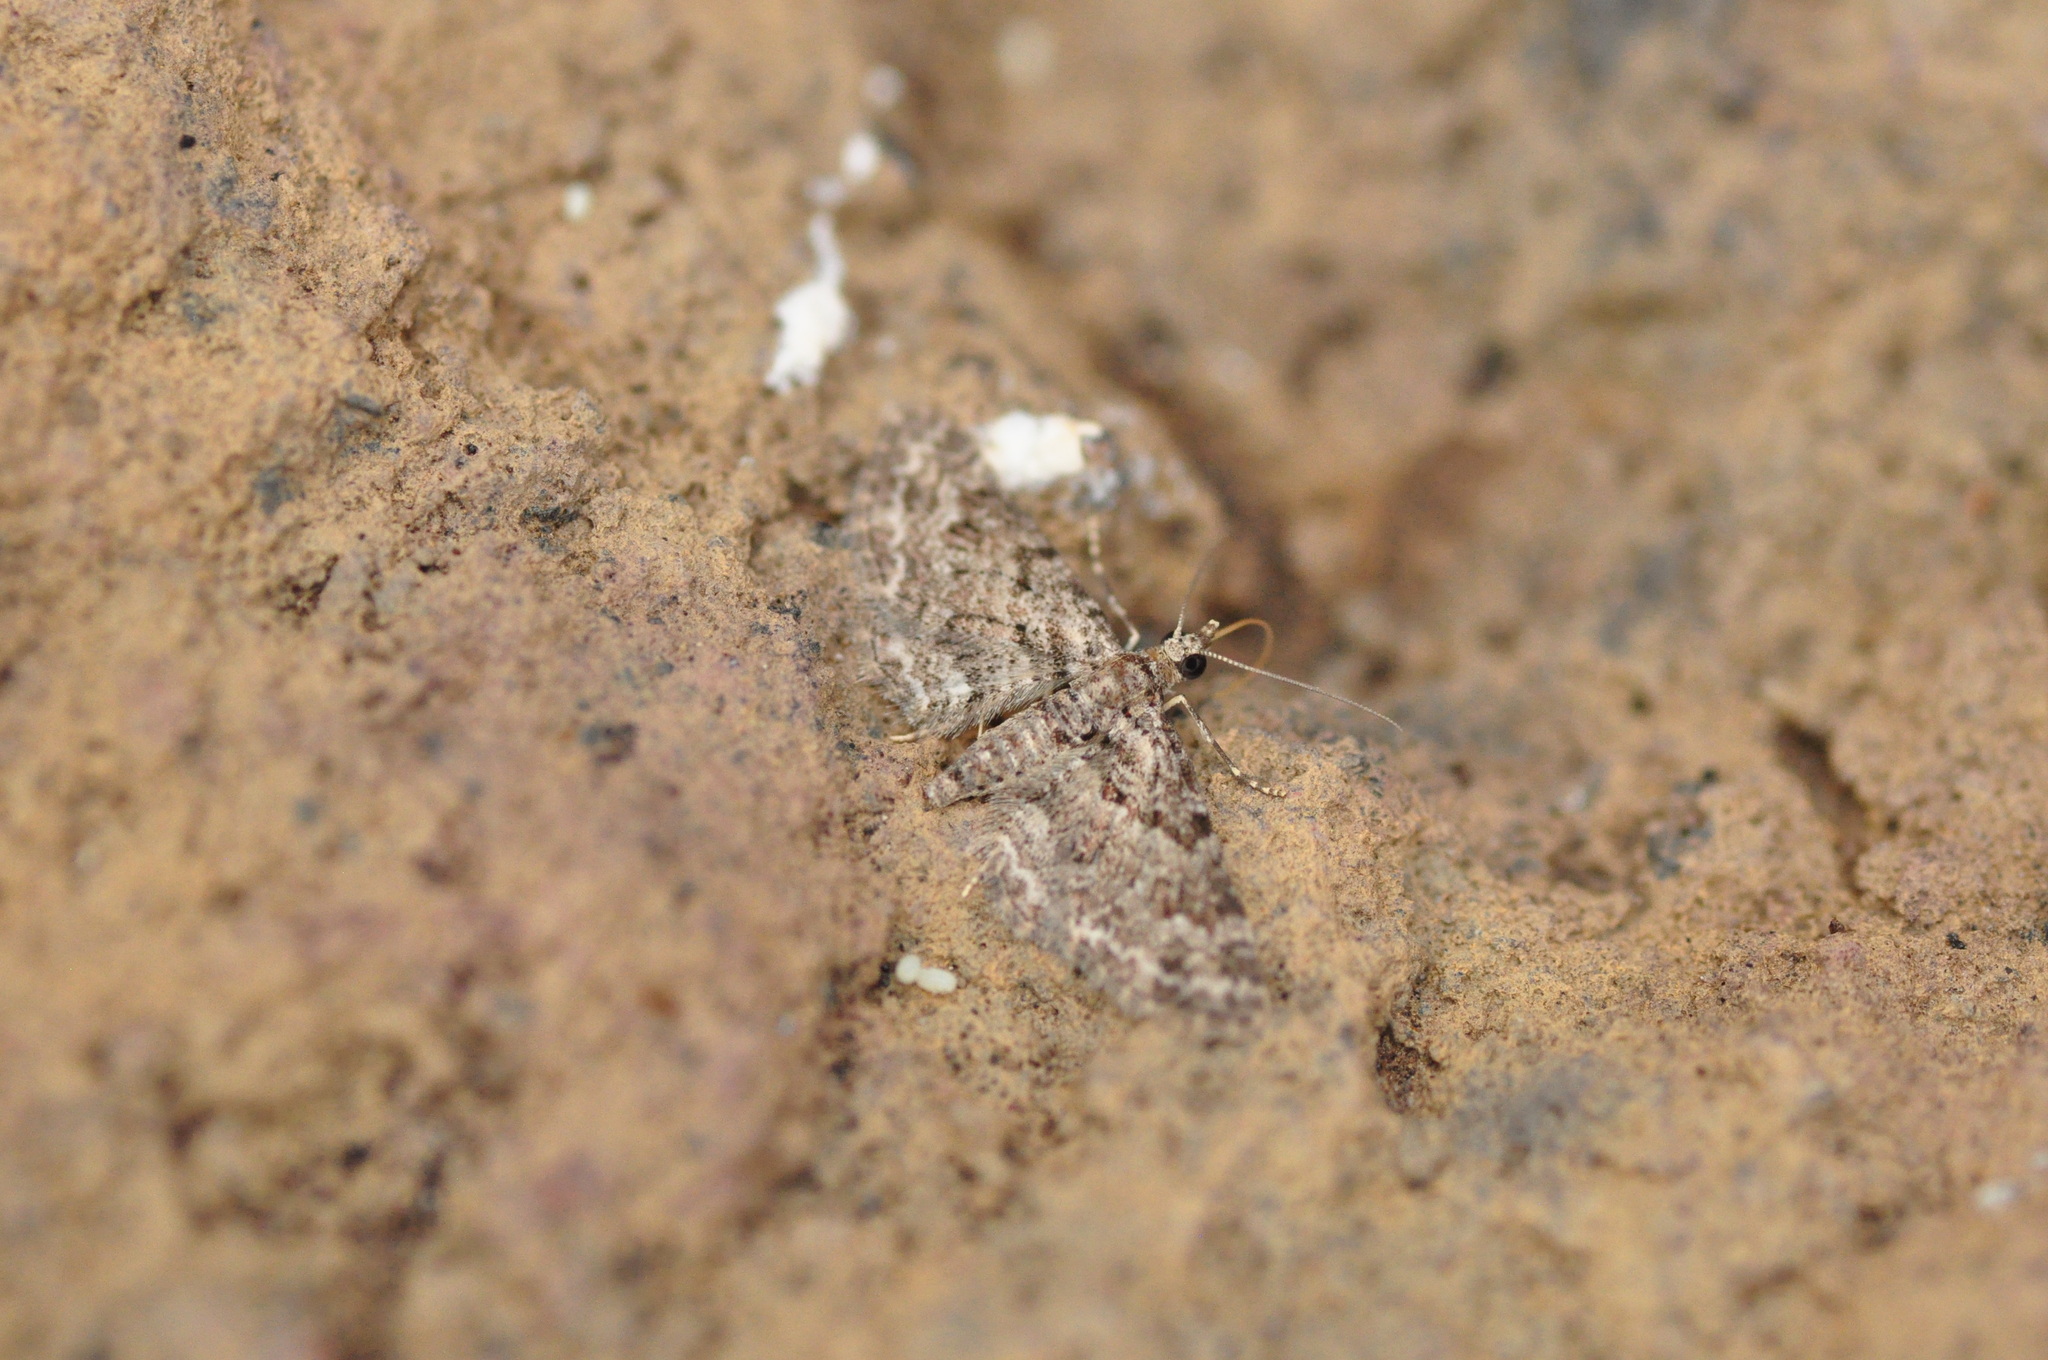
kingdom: Animalia
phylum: Arthropoda
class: Insecta
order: Lepidoptera
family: Geometridae
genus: Gymnoscelis
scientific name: Gymnoscelis rufifasciata
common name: Double-striped pug
